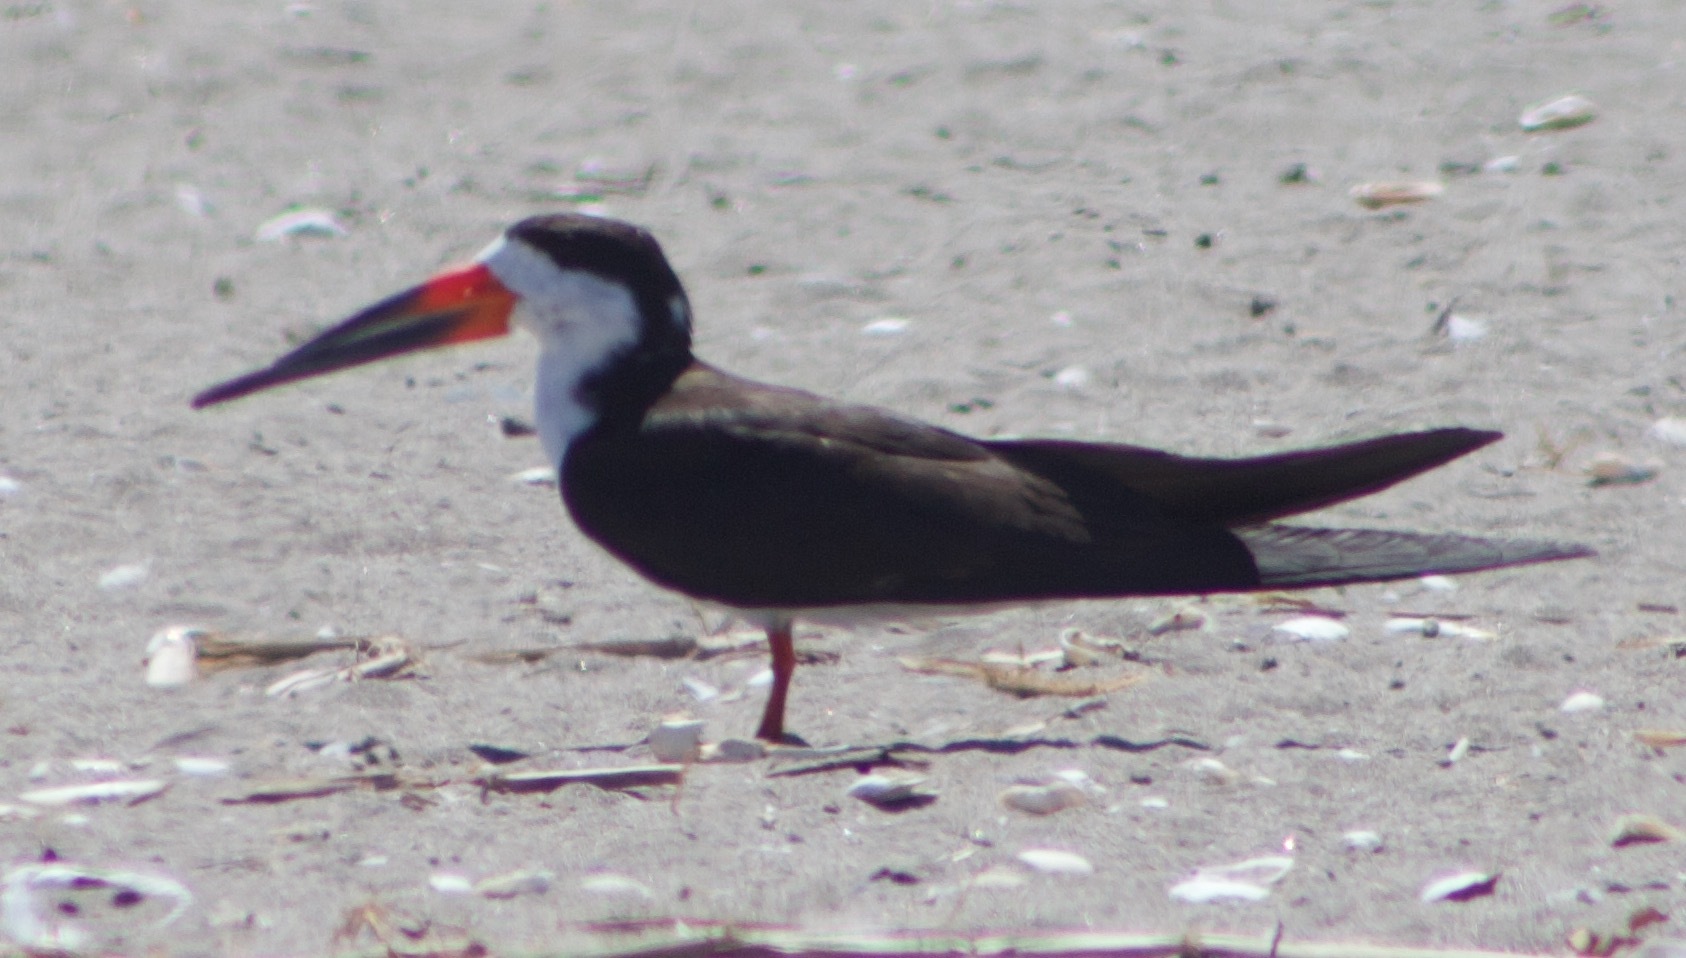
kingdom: Animalia
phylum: Chordata
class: Aves
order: Charadriiformes
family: Laridae
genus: Rynchops
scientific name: Rynchops niger
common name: Black skimmer
